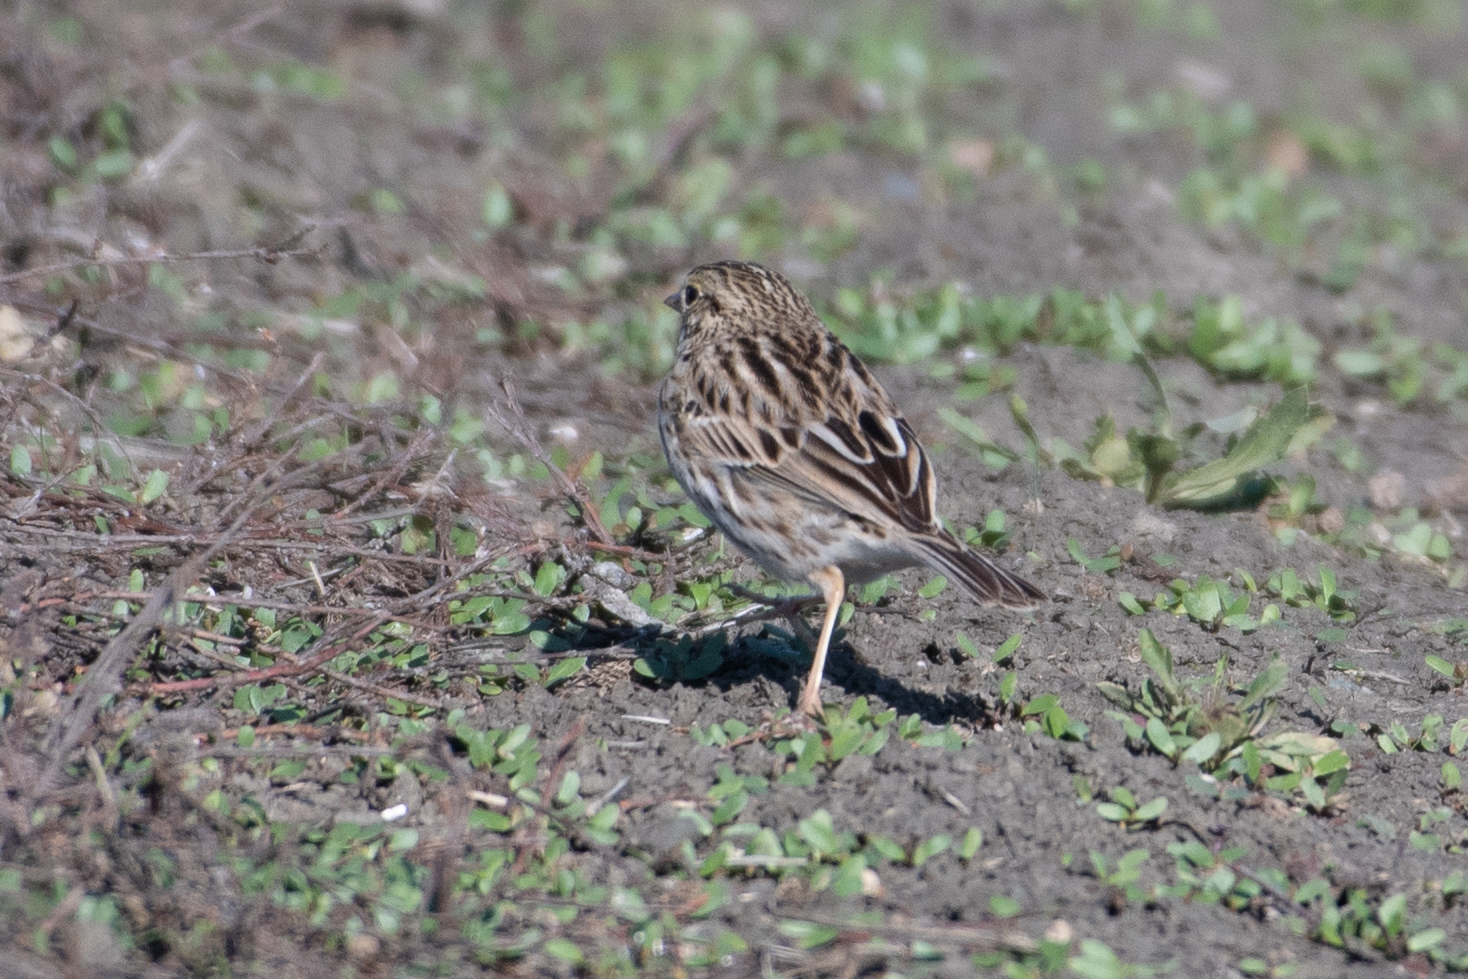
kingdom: Animalia
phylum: Chordata
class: Aves
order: Passeriformes
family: Passerellidae
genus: Passerculus
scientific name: Passerculus sandwichensis
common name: Savannah sparrow
